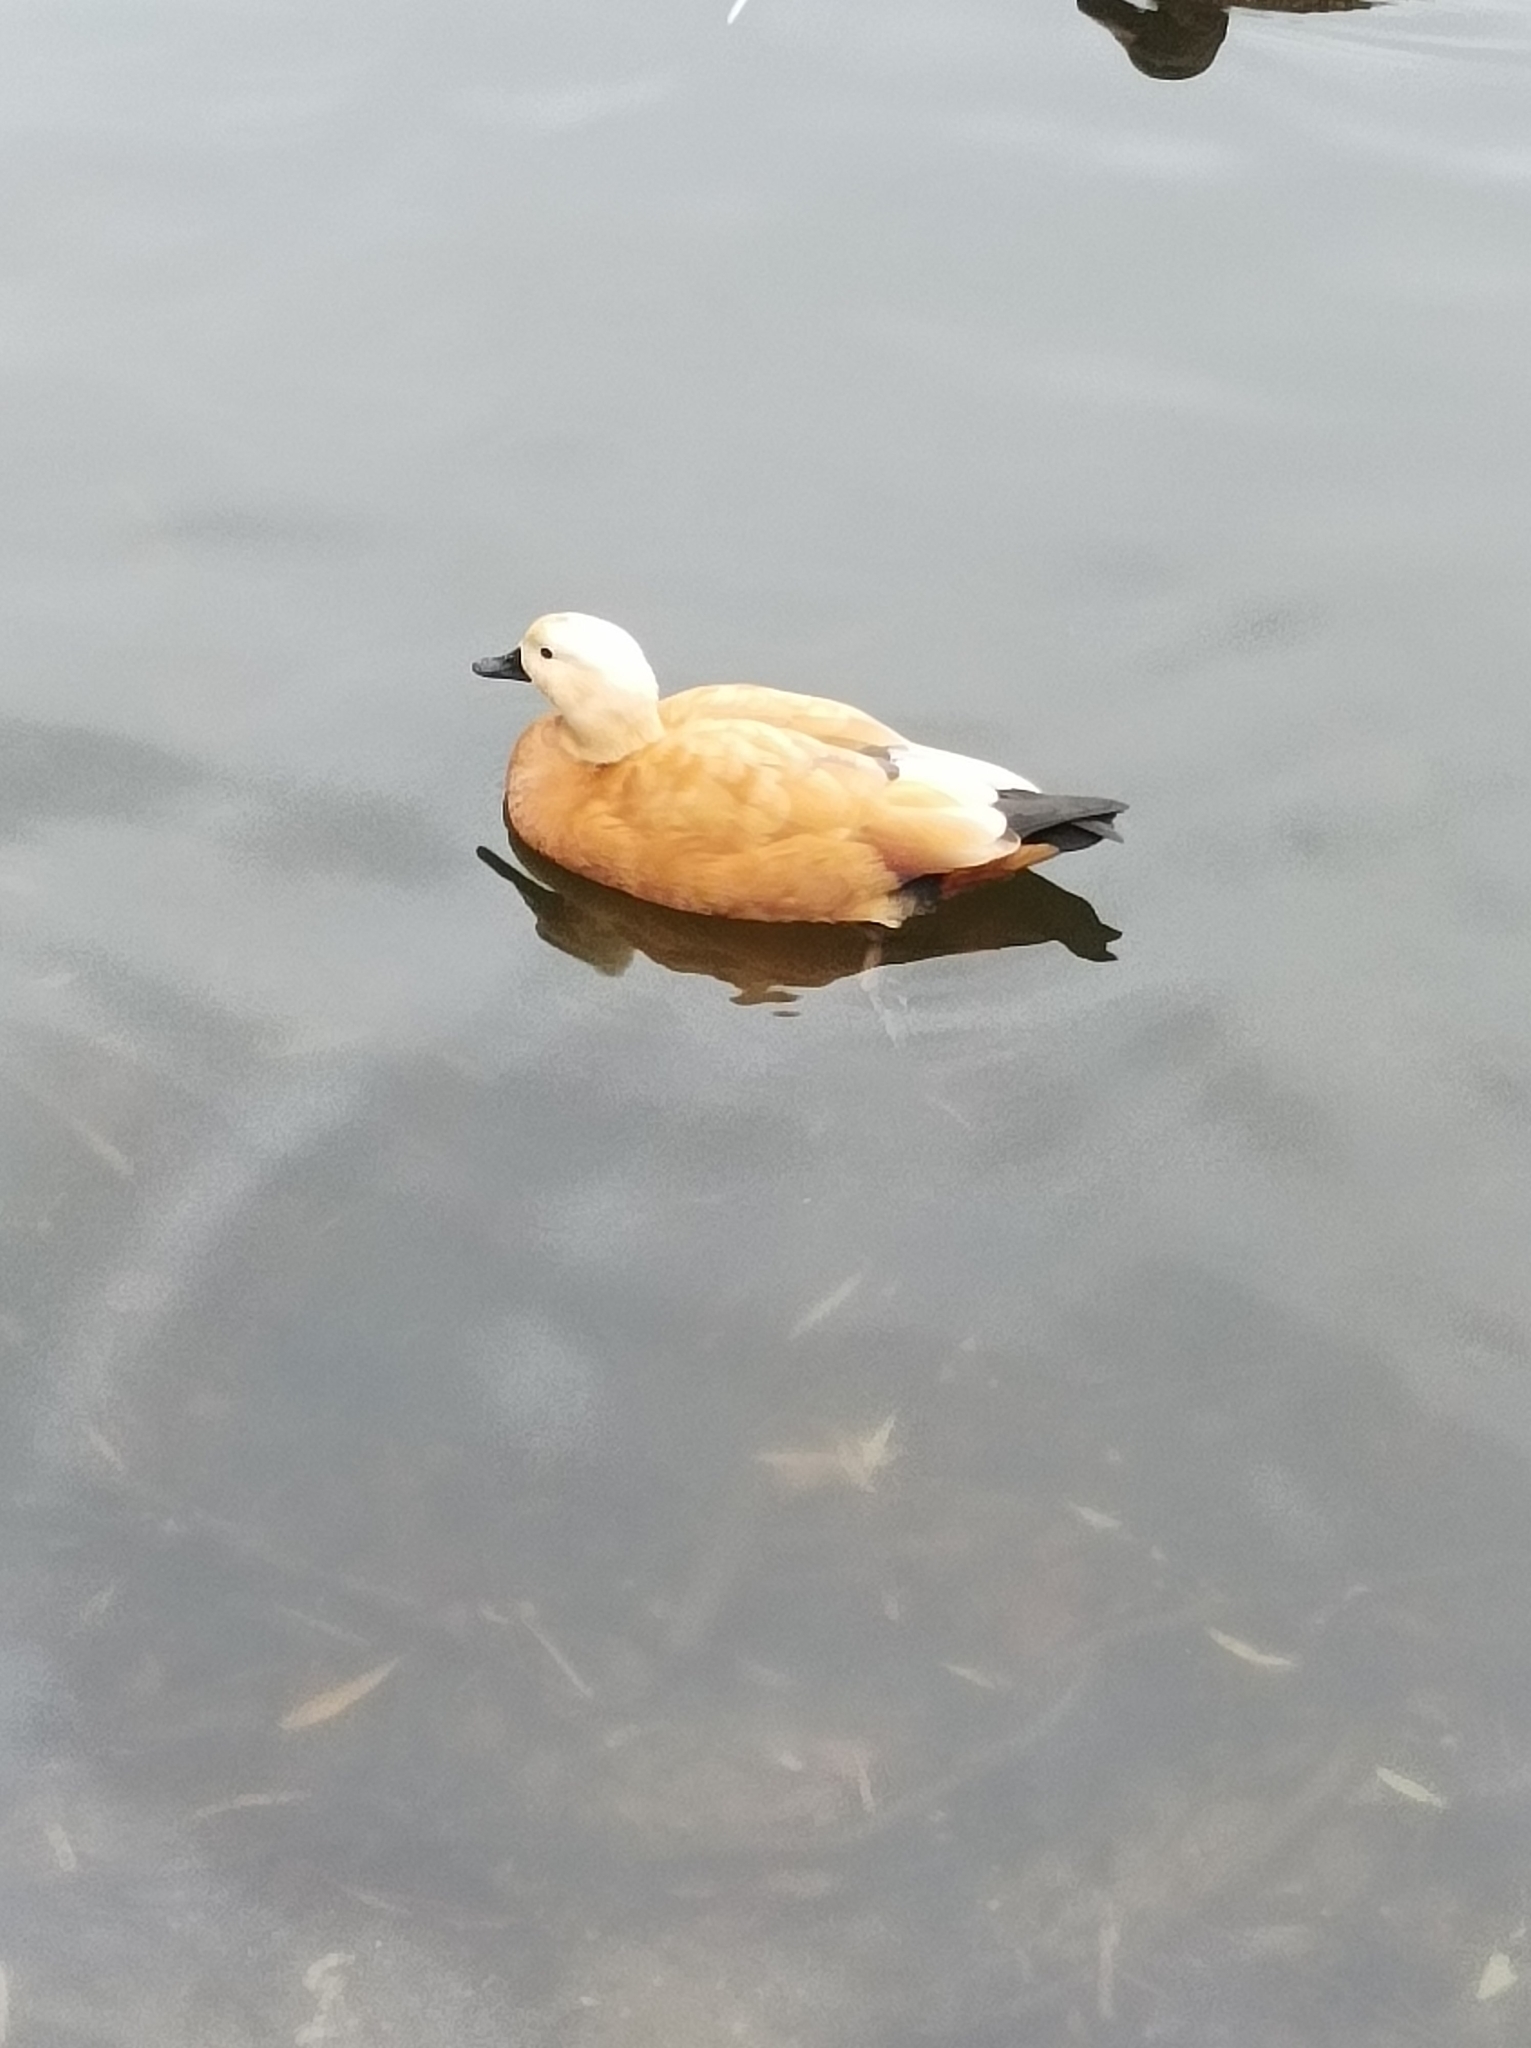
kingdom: Animalia
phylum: Chordata
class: Aves
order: Anseriformes
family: Anatidae
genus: Tadorna
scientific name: Tadorna ferruginea
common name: Ruddy shelduck
